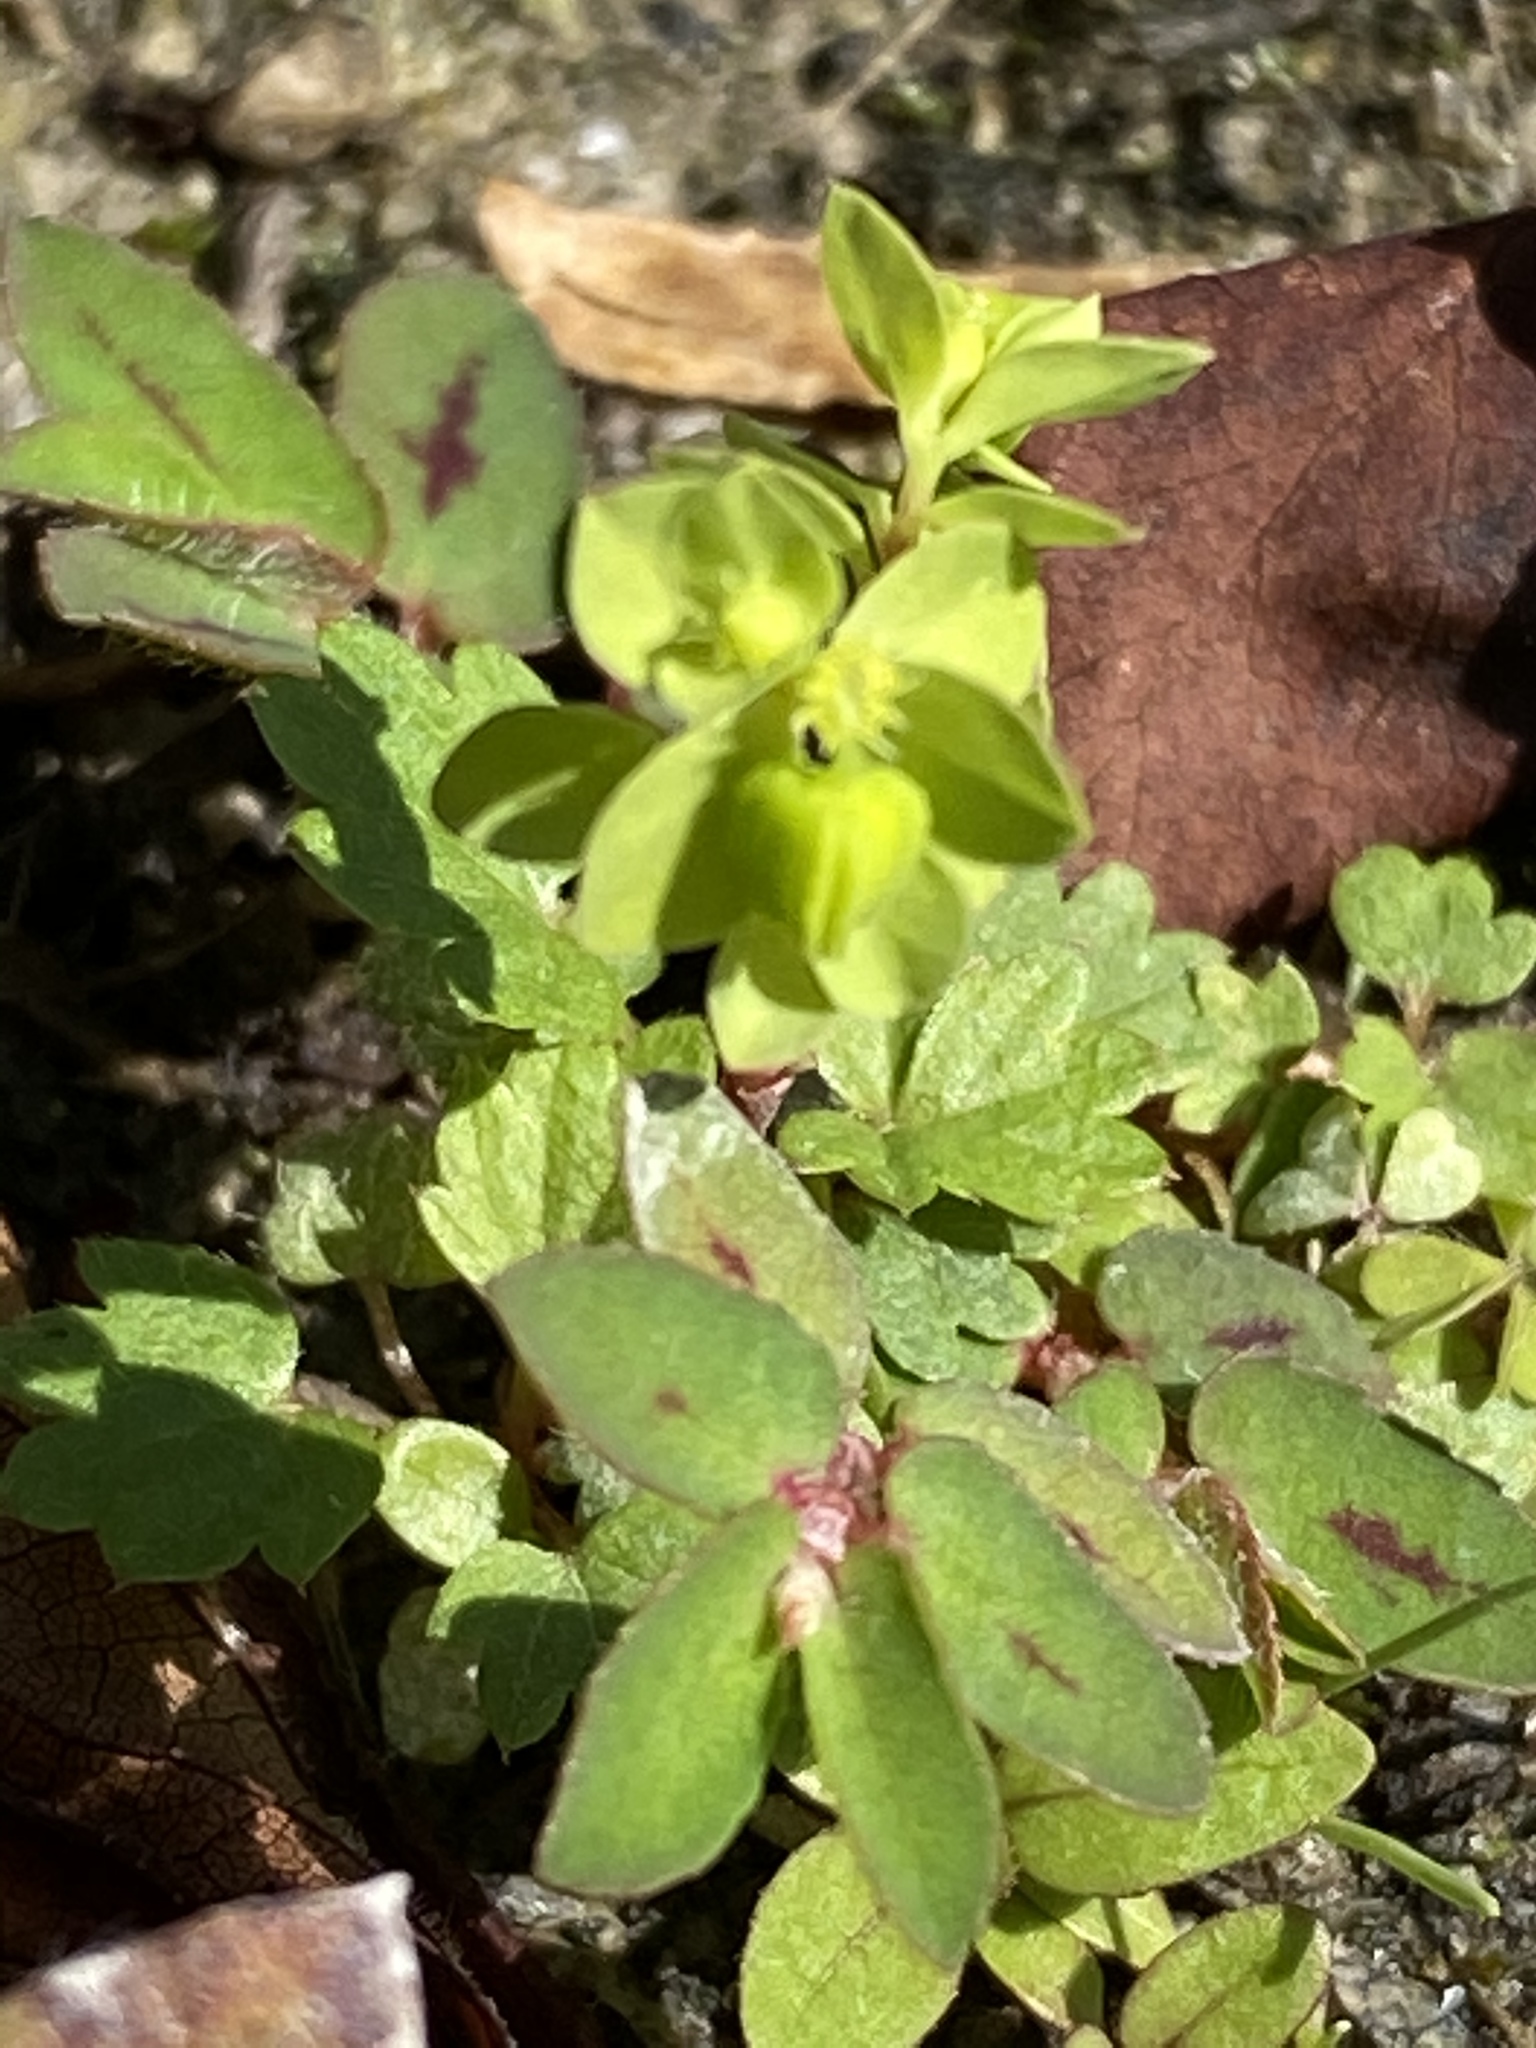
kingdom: Plantae
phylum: Tracheophyta
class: Magnoliopsida
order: Malpighiales
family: Euphorbiaceae
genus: Euphorbia
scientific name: Euphorbia peplus
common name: Petty spurge
